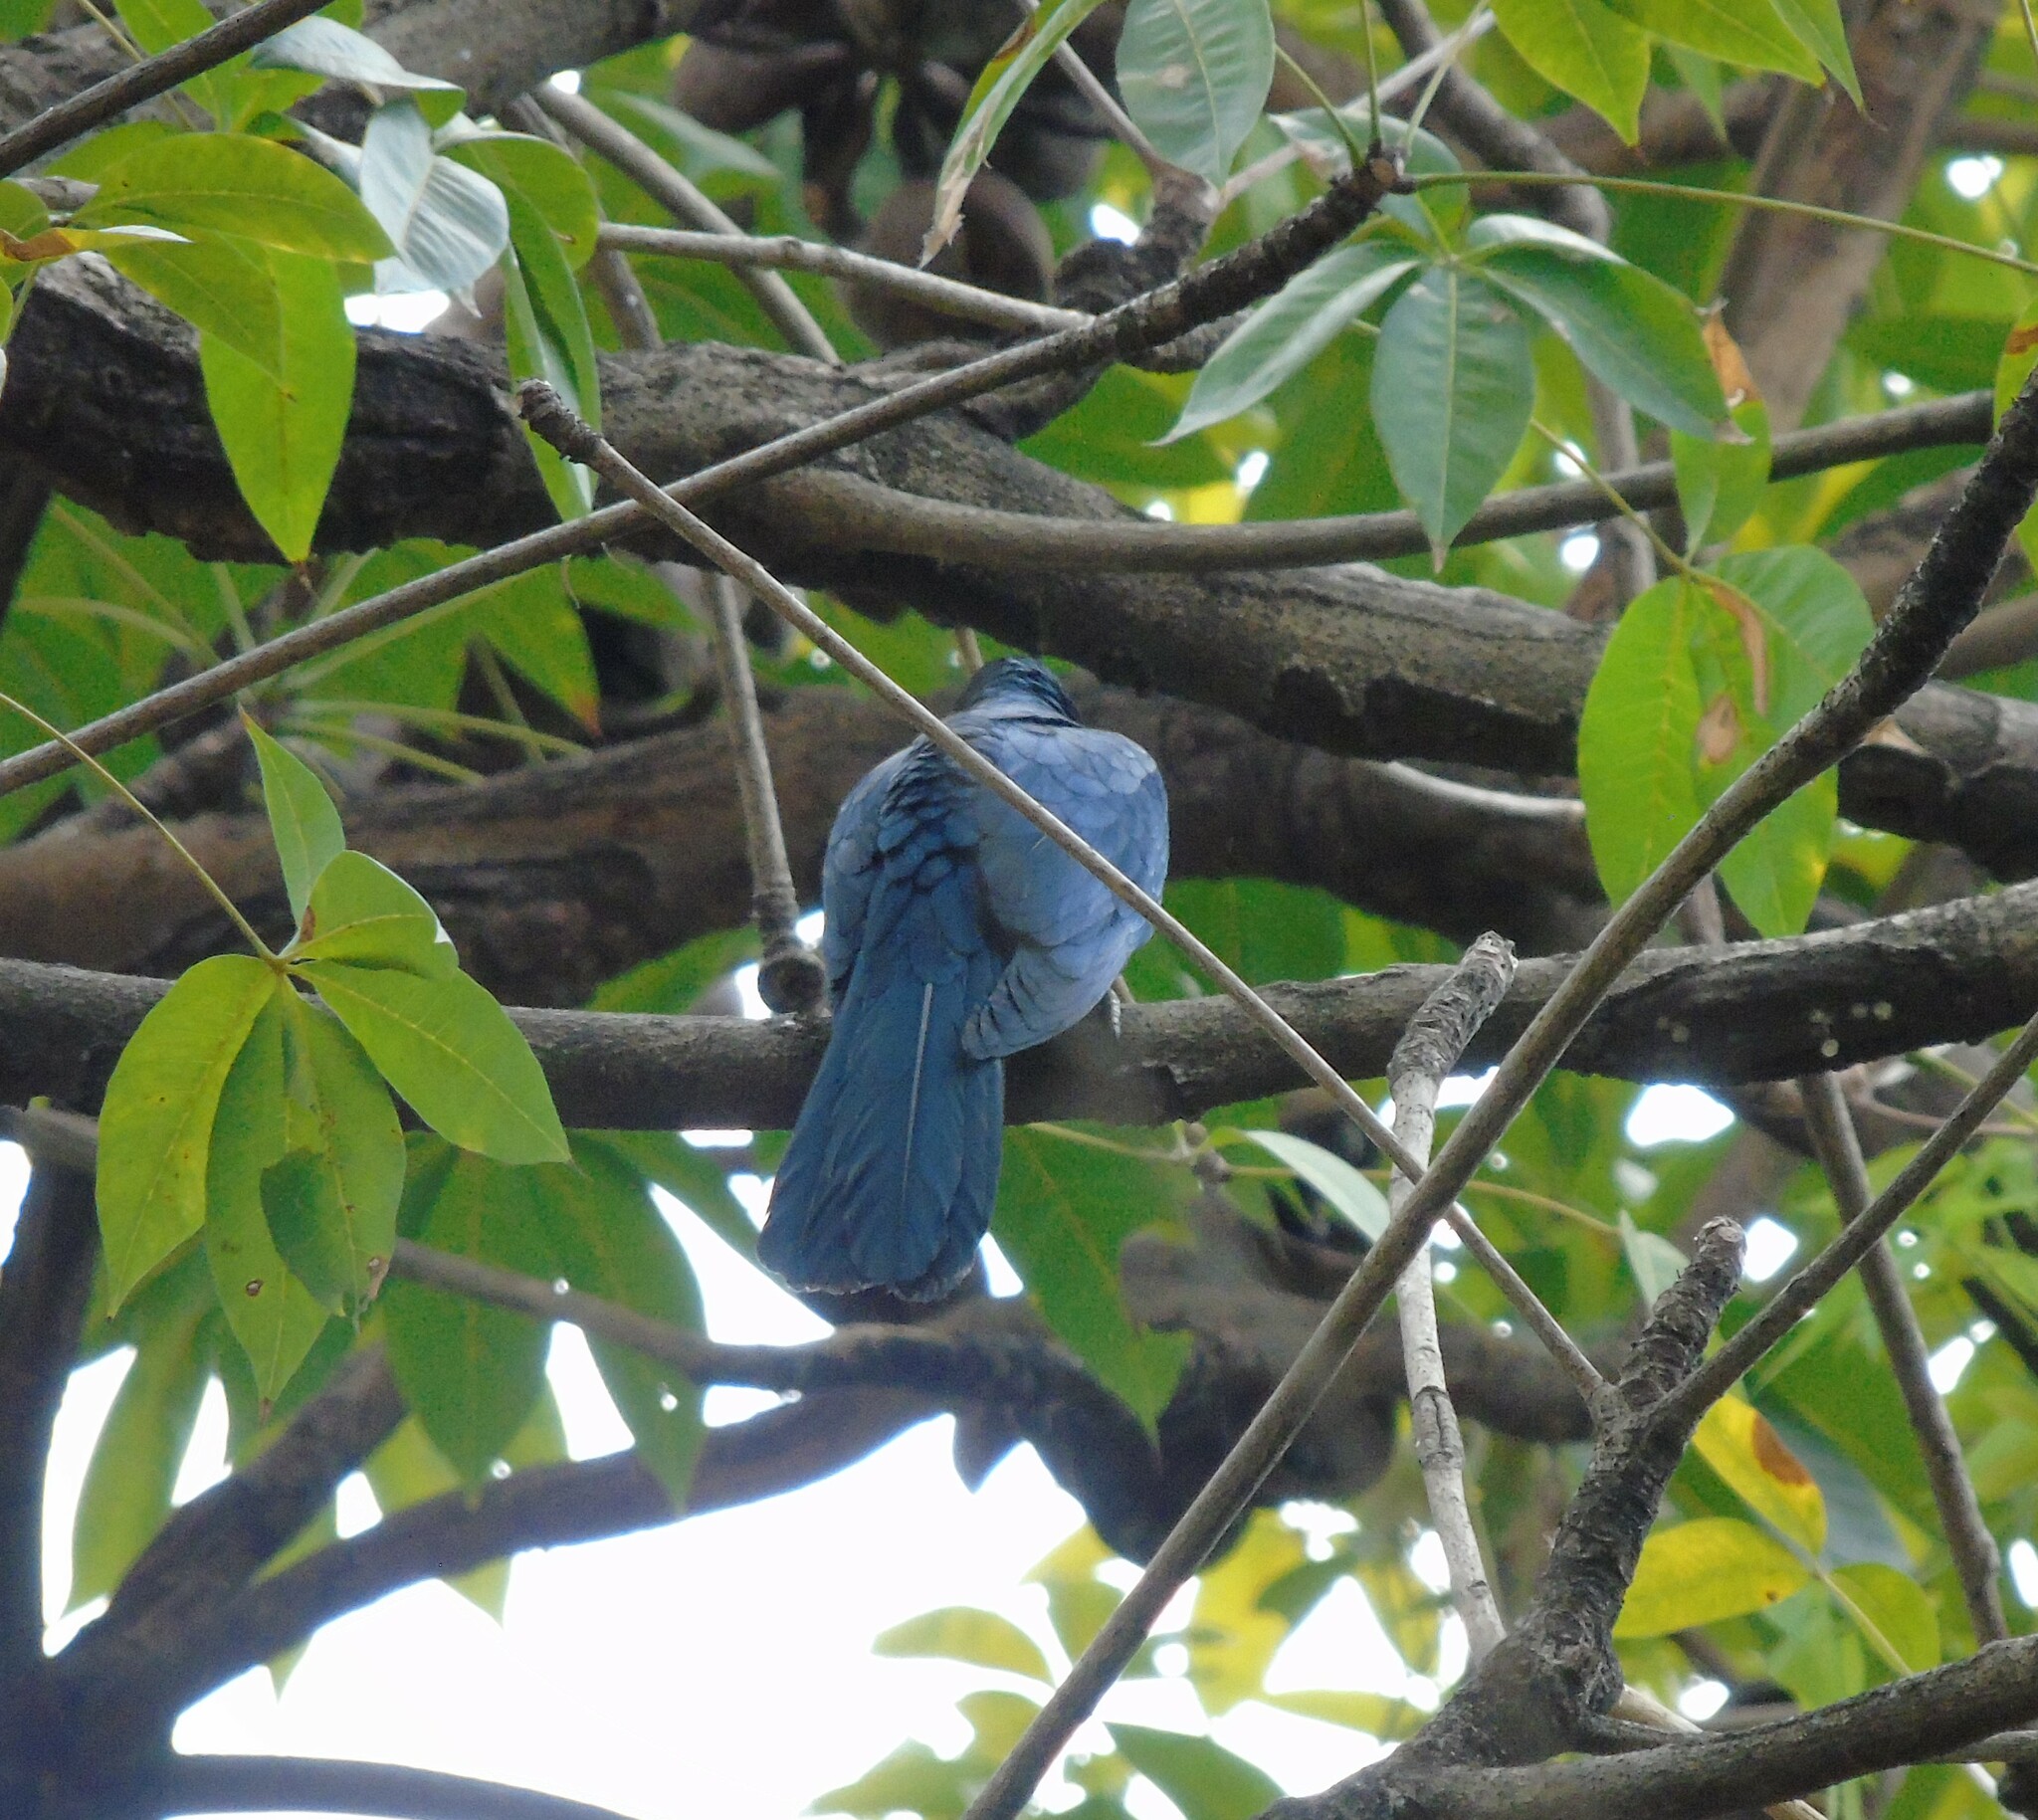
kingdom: Animalia
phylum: Chordata
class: Aves
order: Cuculiformes
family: Cuculidae
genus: Eudynamys
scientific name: Eudynamys scolopaceus
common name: Asian koel
